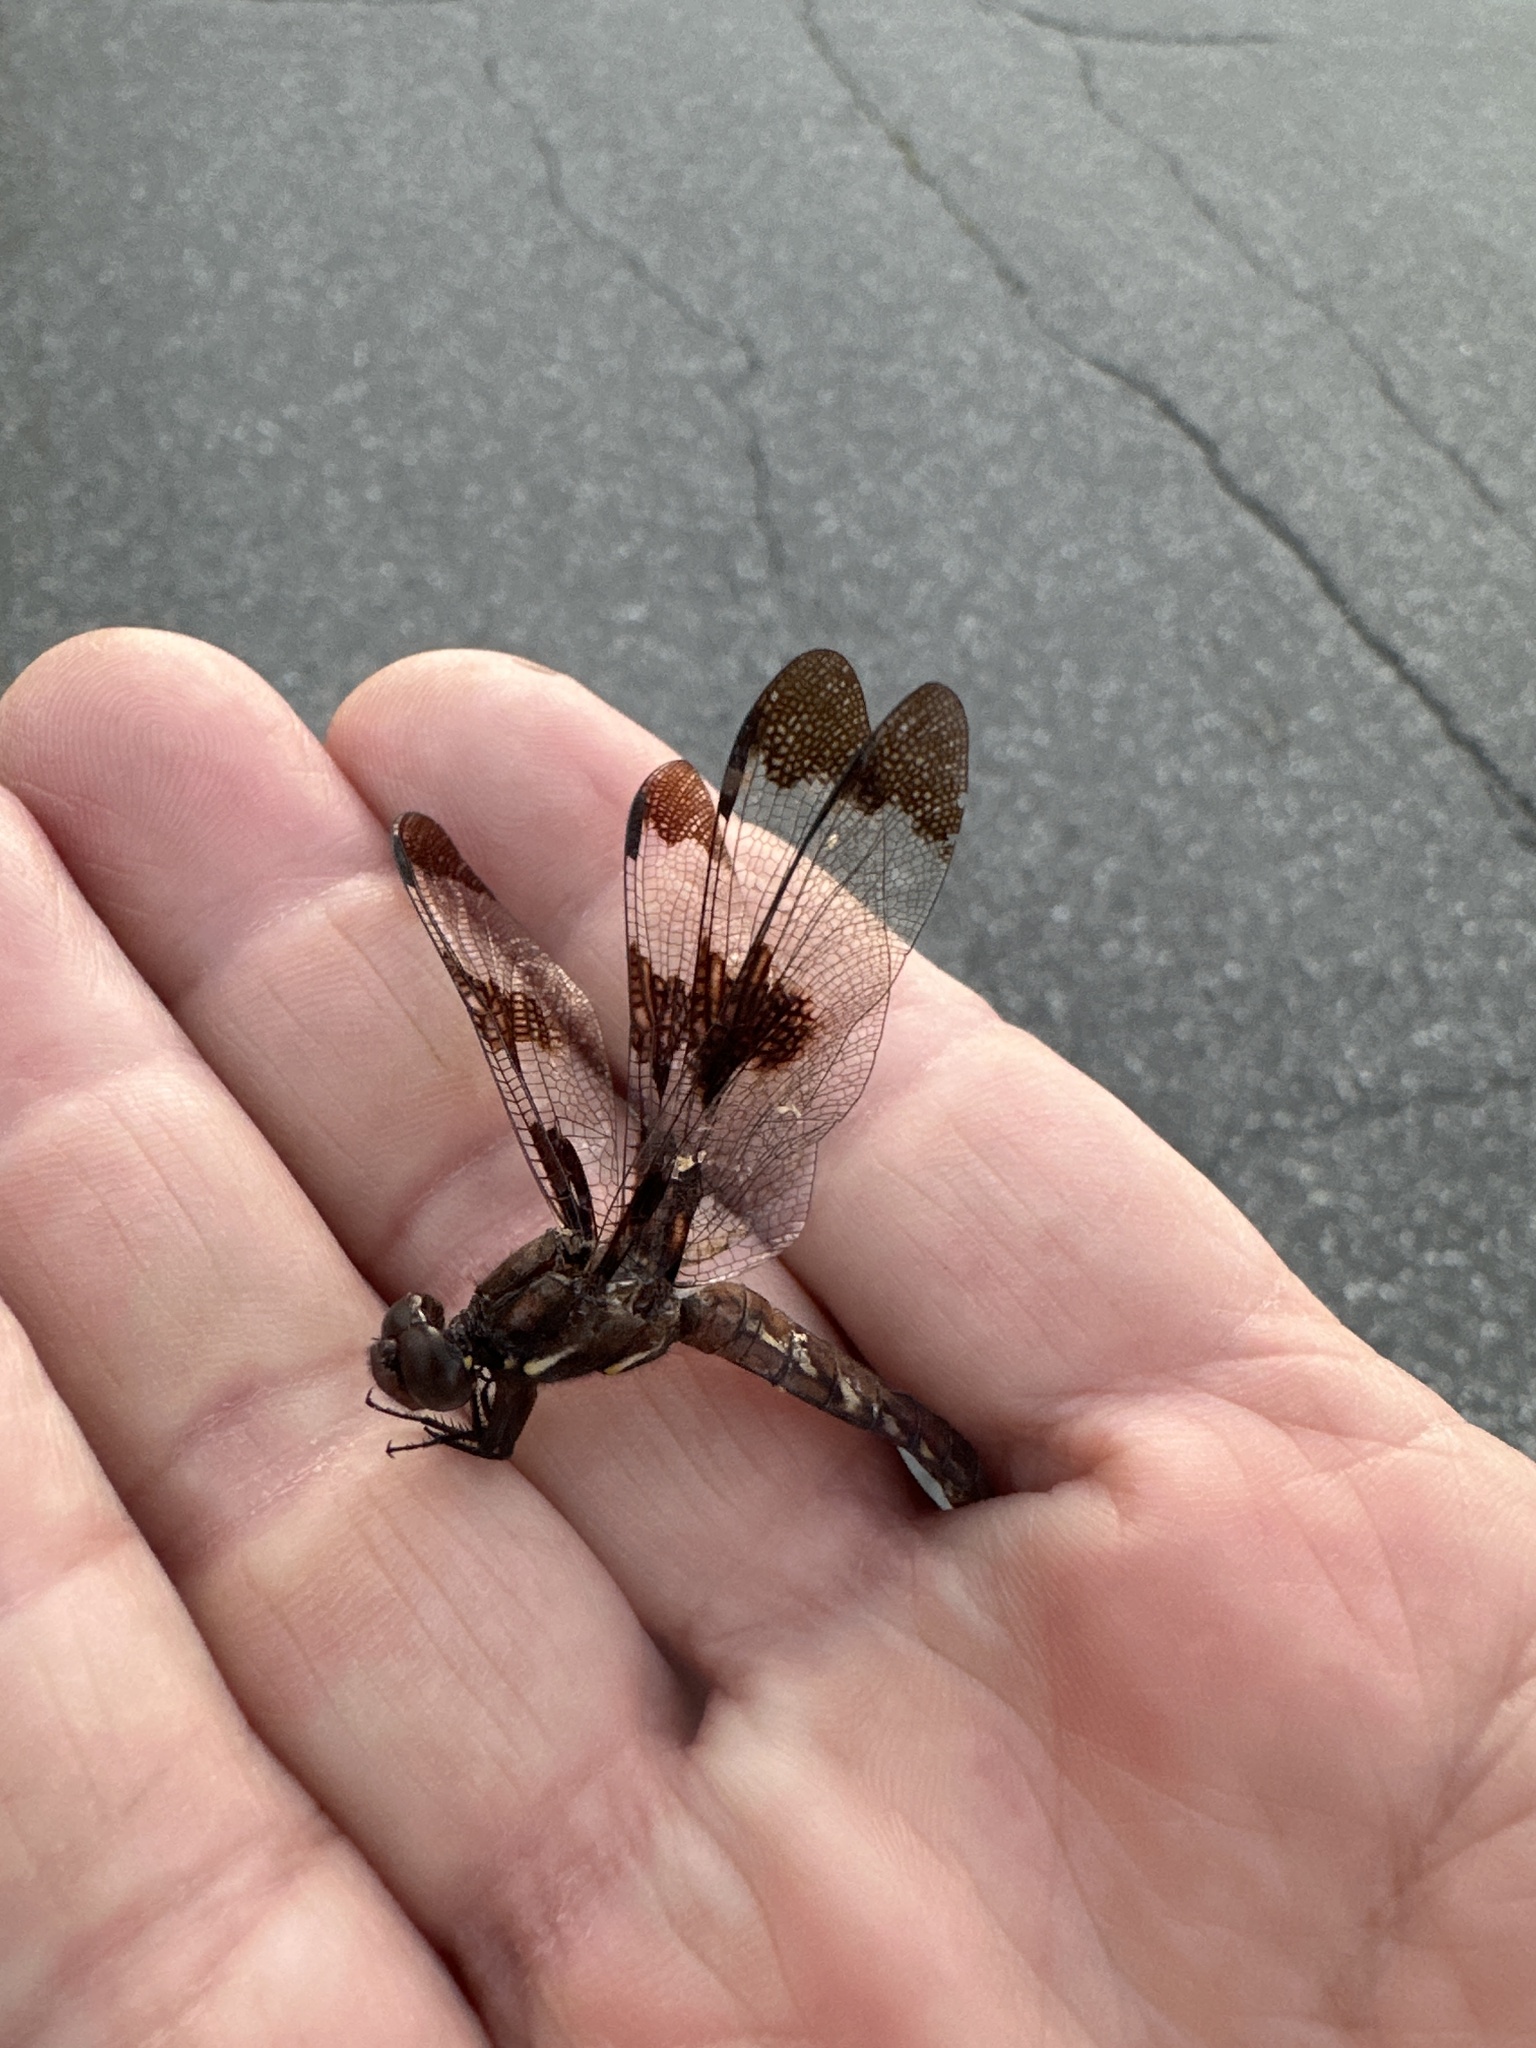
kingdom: Animalia
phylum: Arthropoda
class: Insecta
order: Odonata
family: Libellulidae
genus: Plathemis
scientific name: Plathemis lydia
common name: Common whitetail
